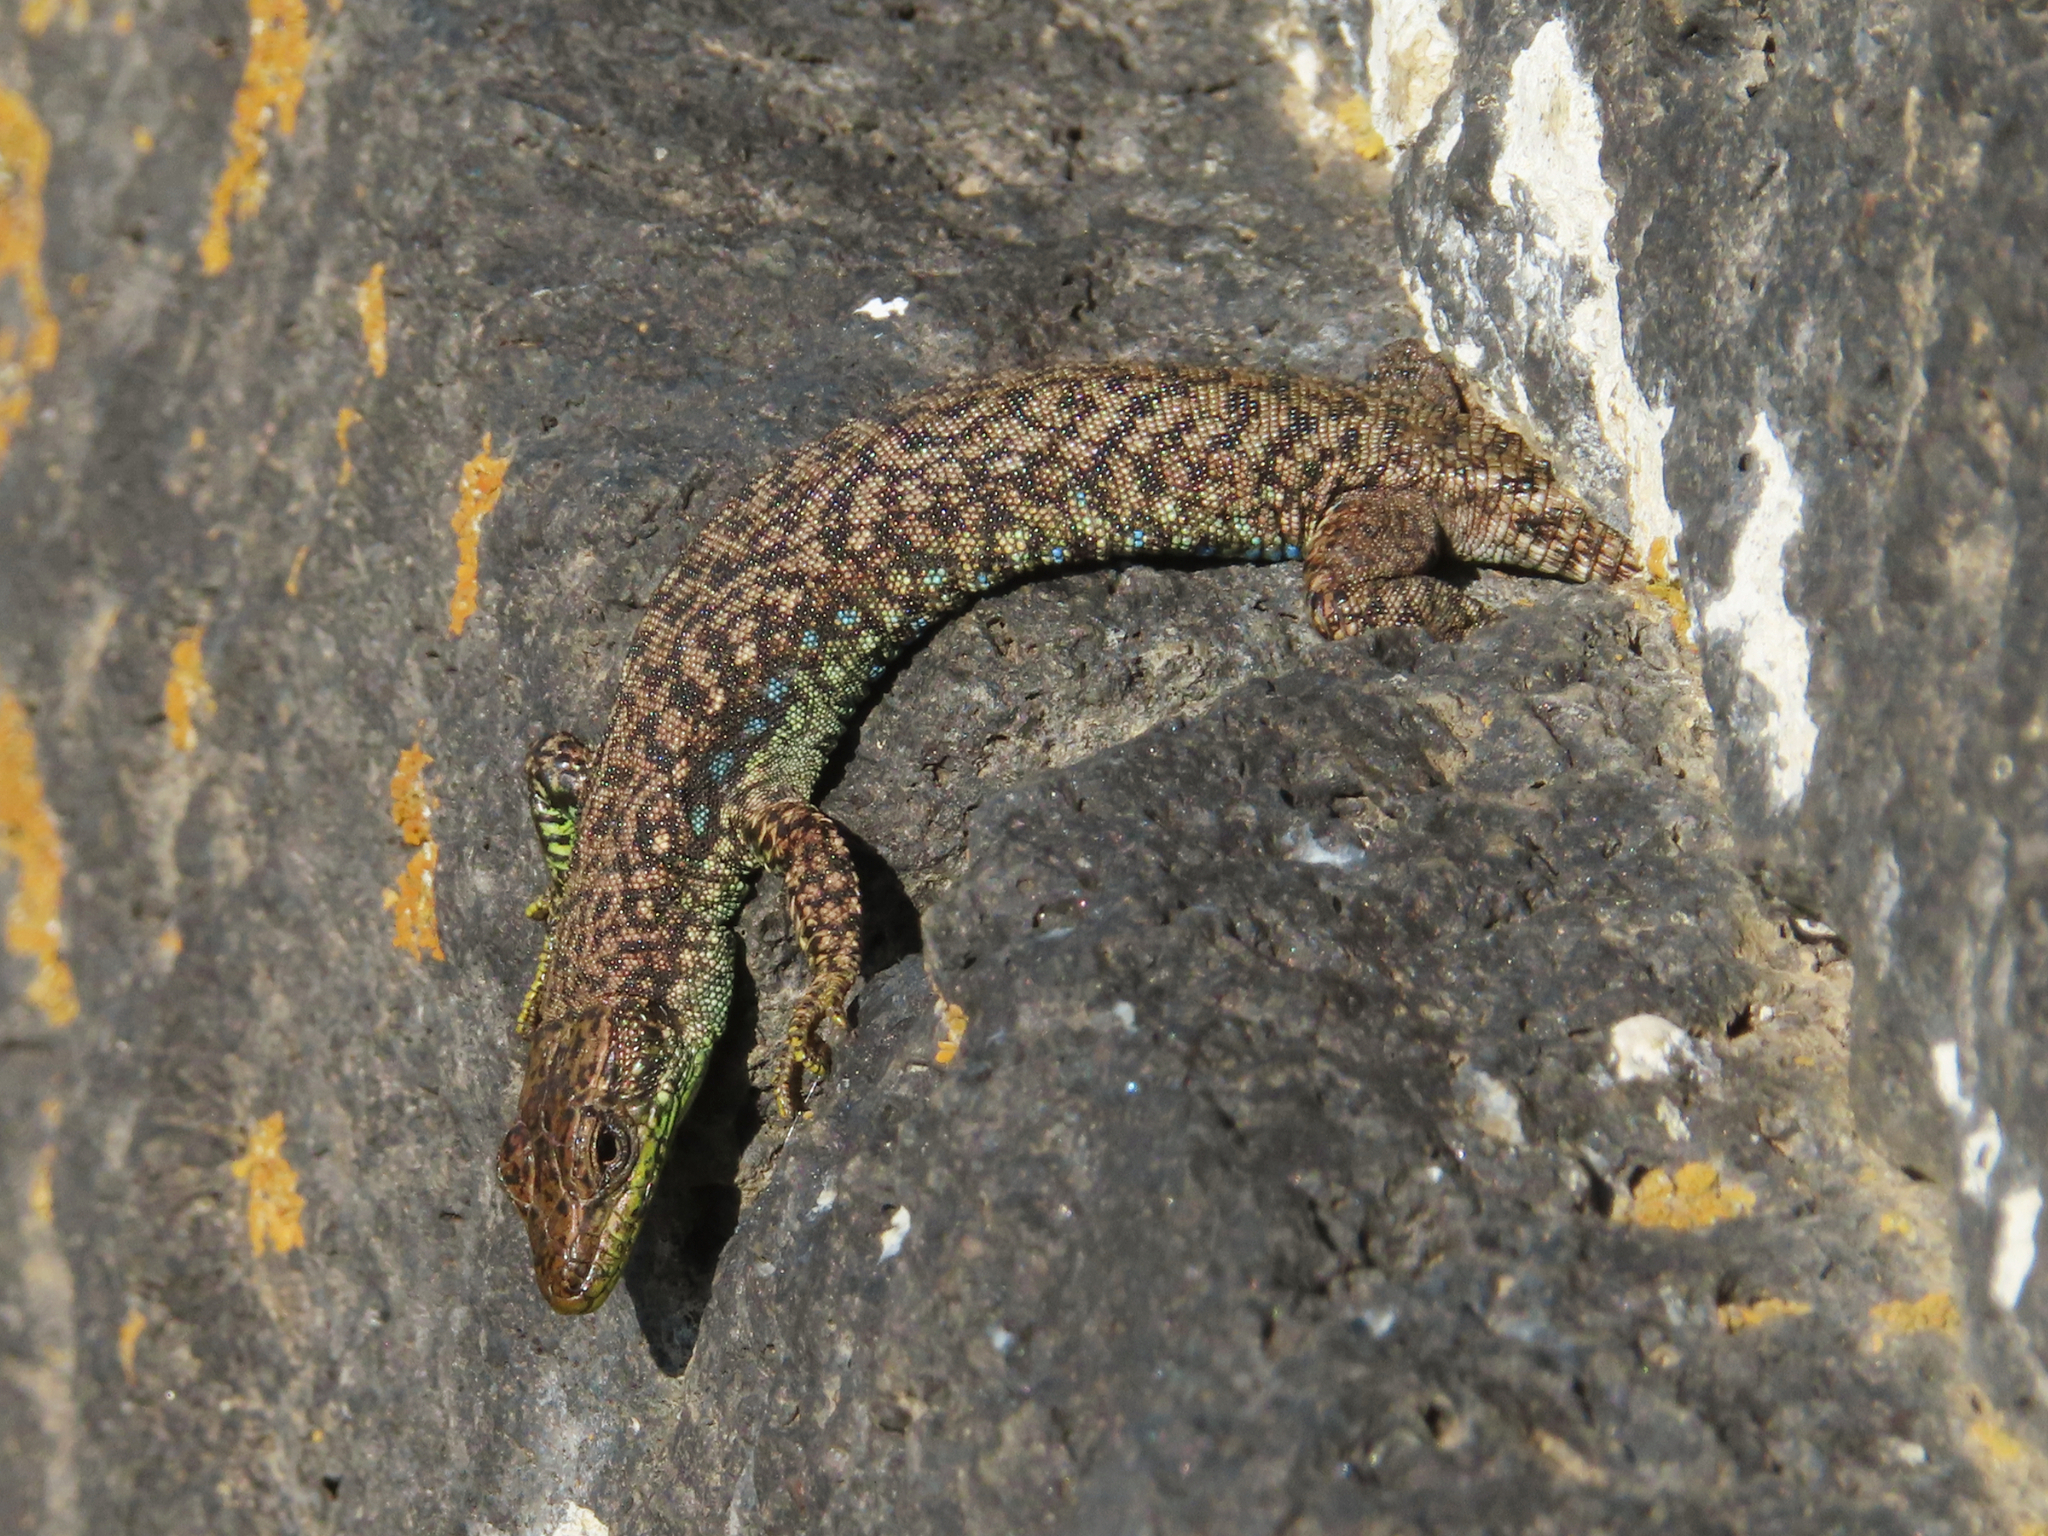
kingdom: Animalia
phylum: Chordata
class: Squamata
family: Lacertidae
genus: Darevskia
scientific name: Darevskia
